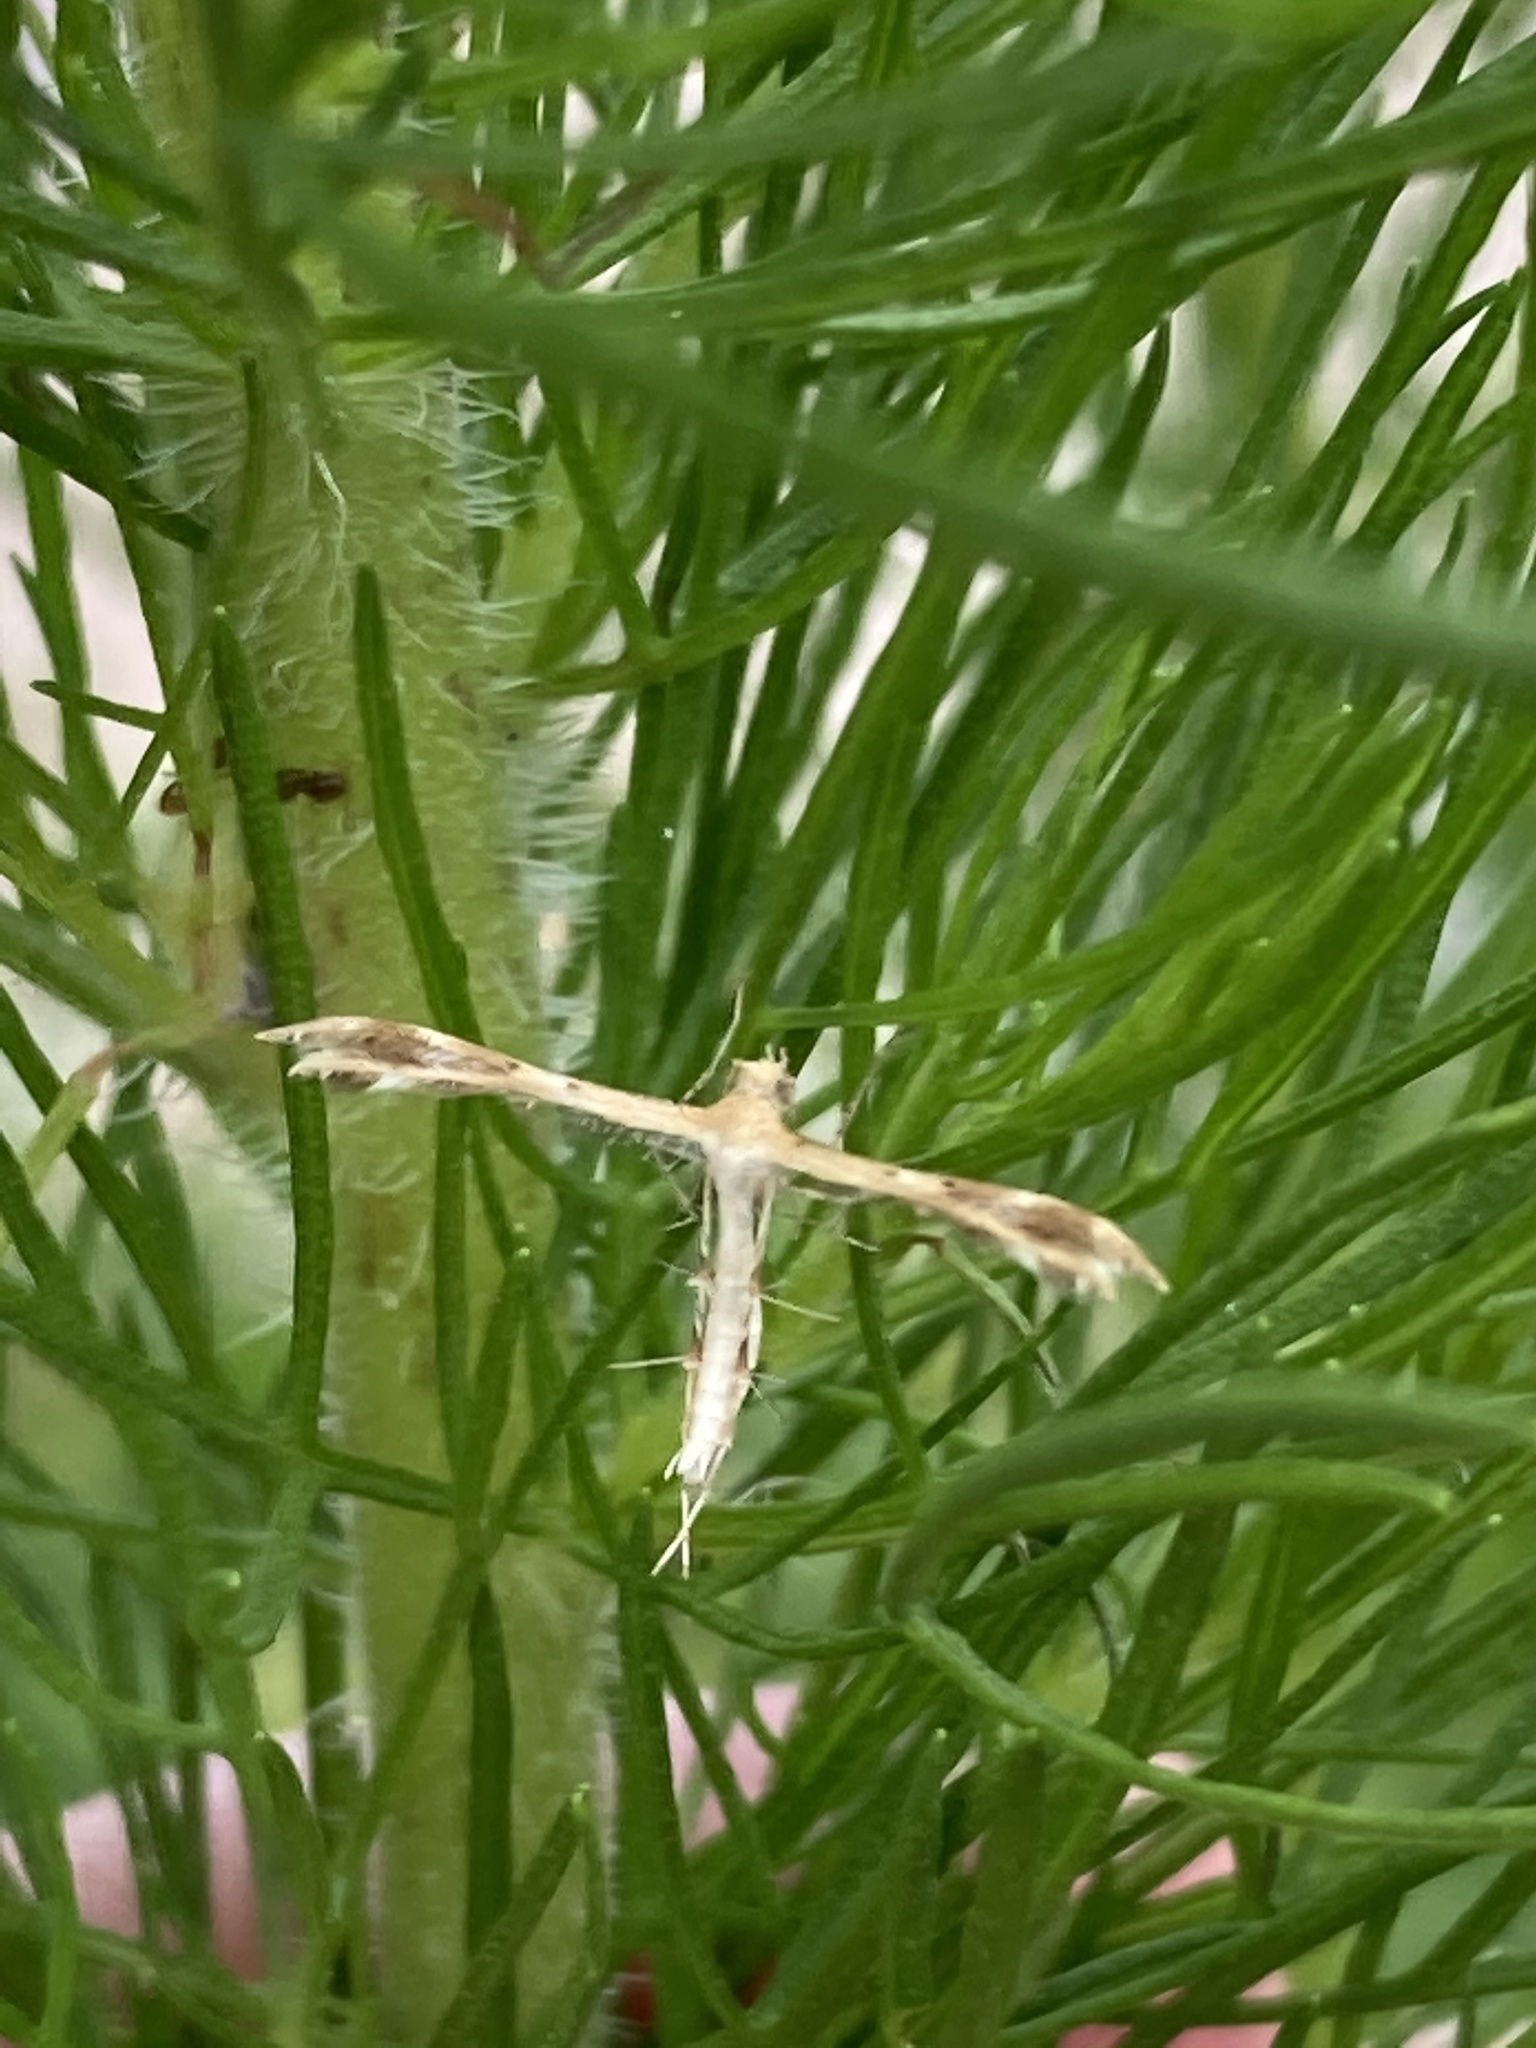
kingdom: Animalia
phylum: Arthropoda
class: Insecta
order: Lepidoptera
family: Pterophoridae
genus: Megalorhipida
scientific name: Megalorhipida leucodactylus
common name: Plume moth
